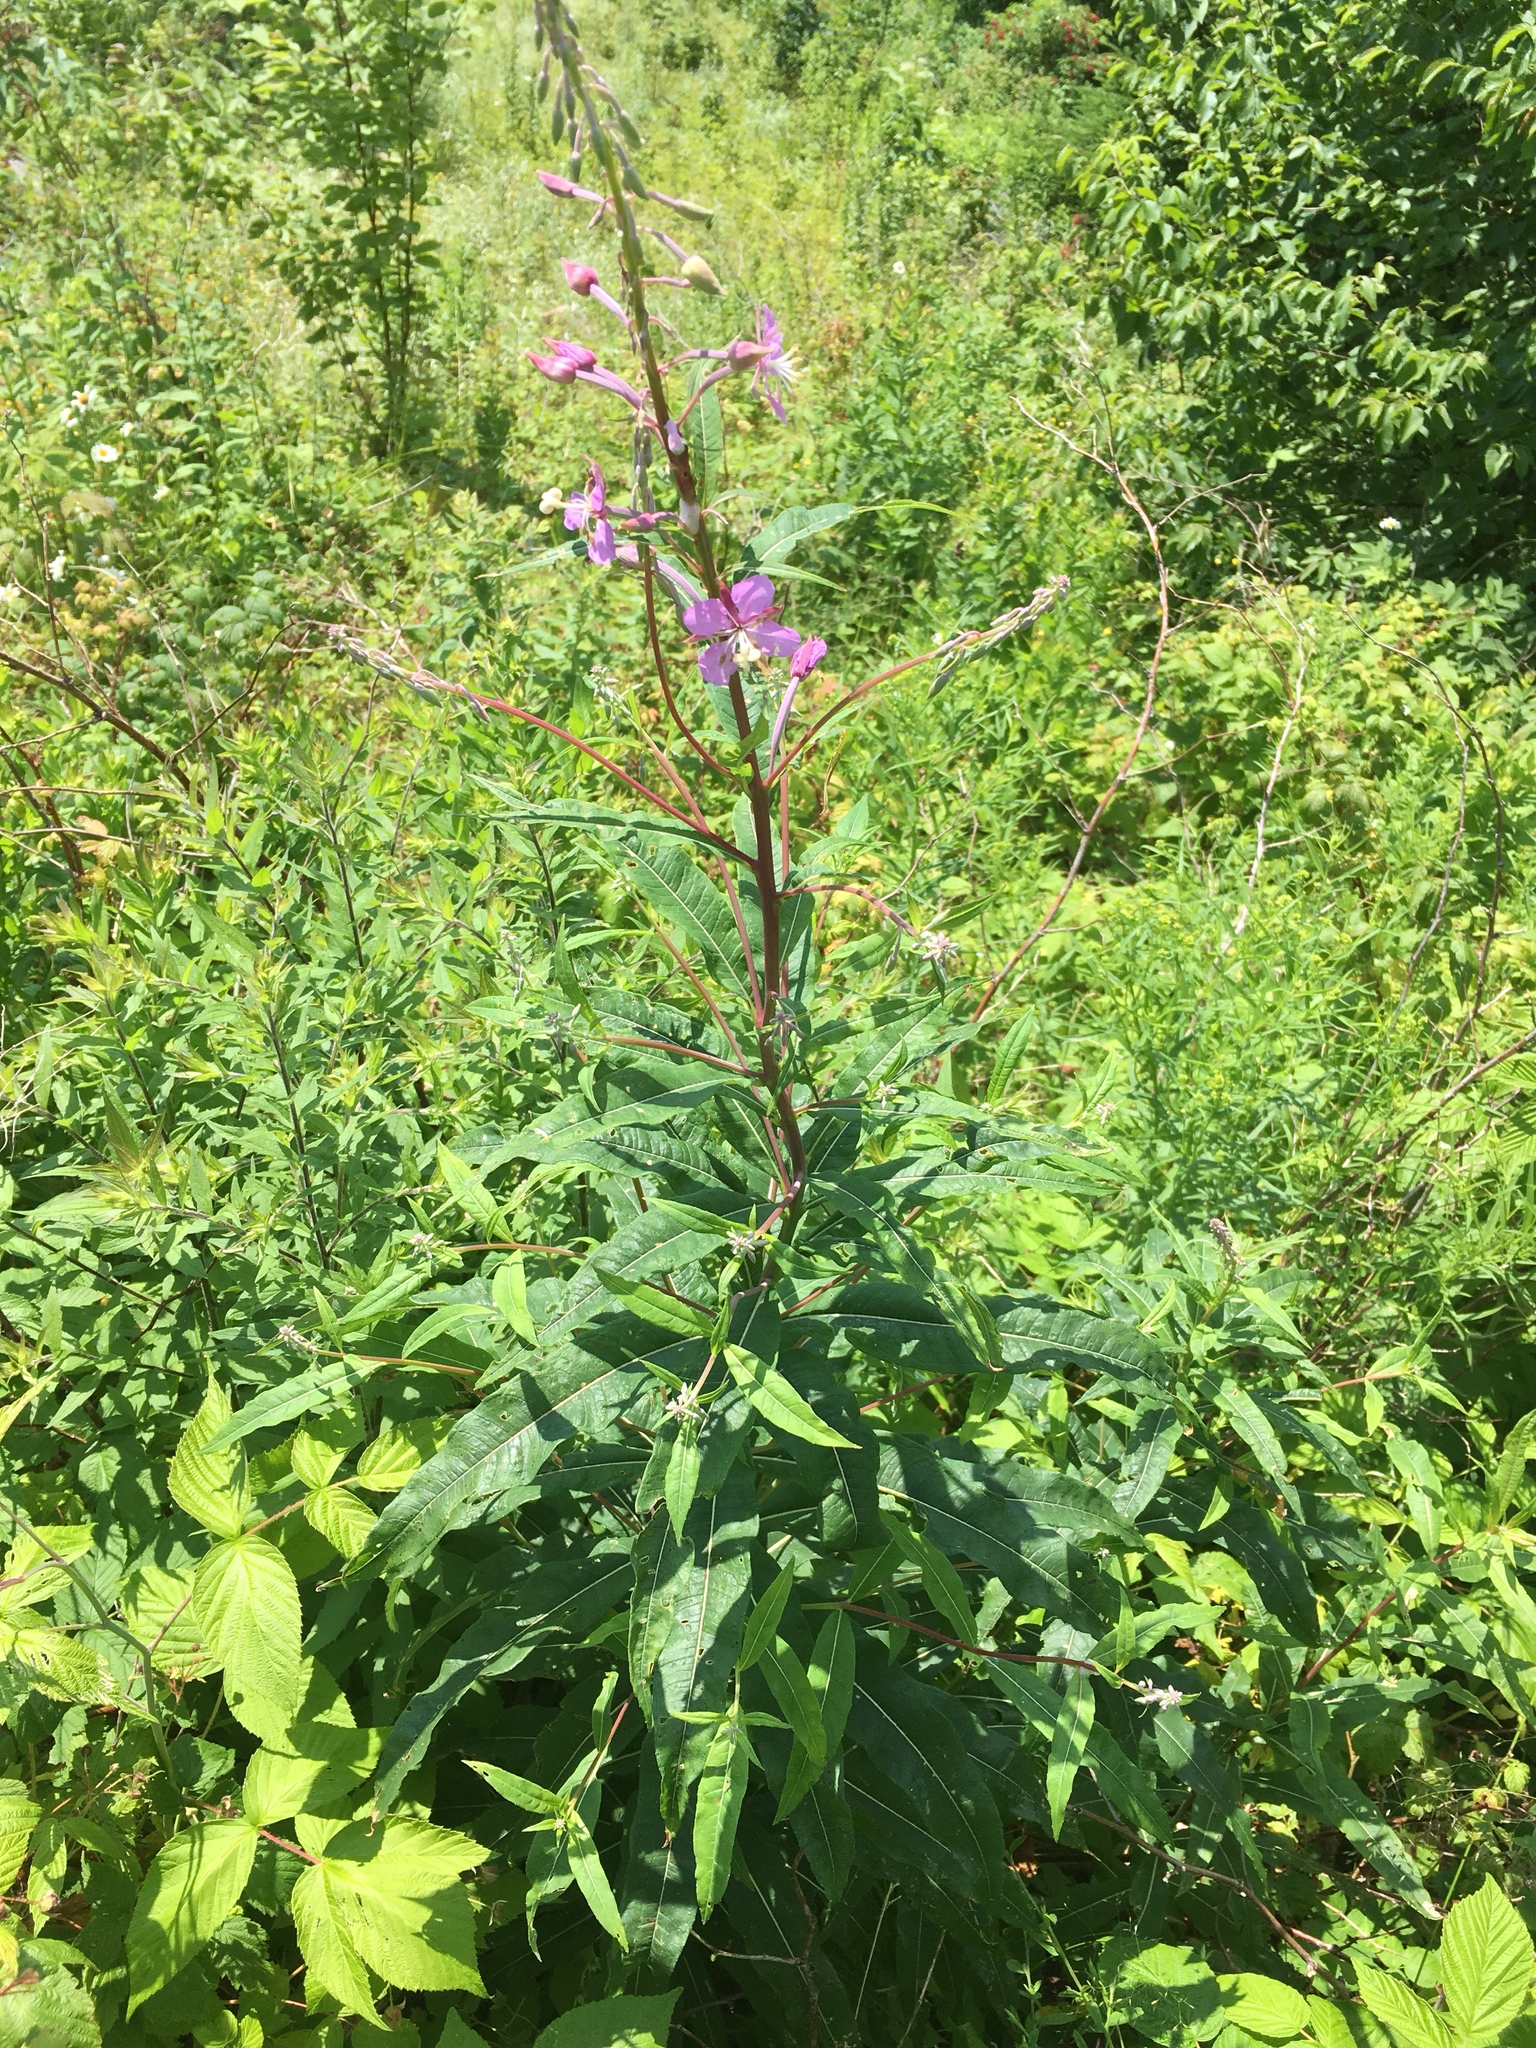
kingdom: Plantae
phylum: Tracheophyta
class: Magnoliopsida
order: Myrtales
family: Onagraceae
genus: Chamaenerion
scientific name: Chamaenerion angustifolium
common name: Fireweed
